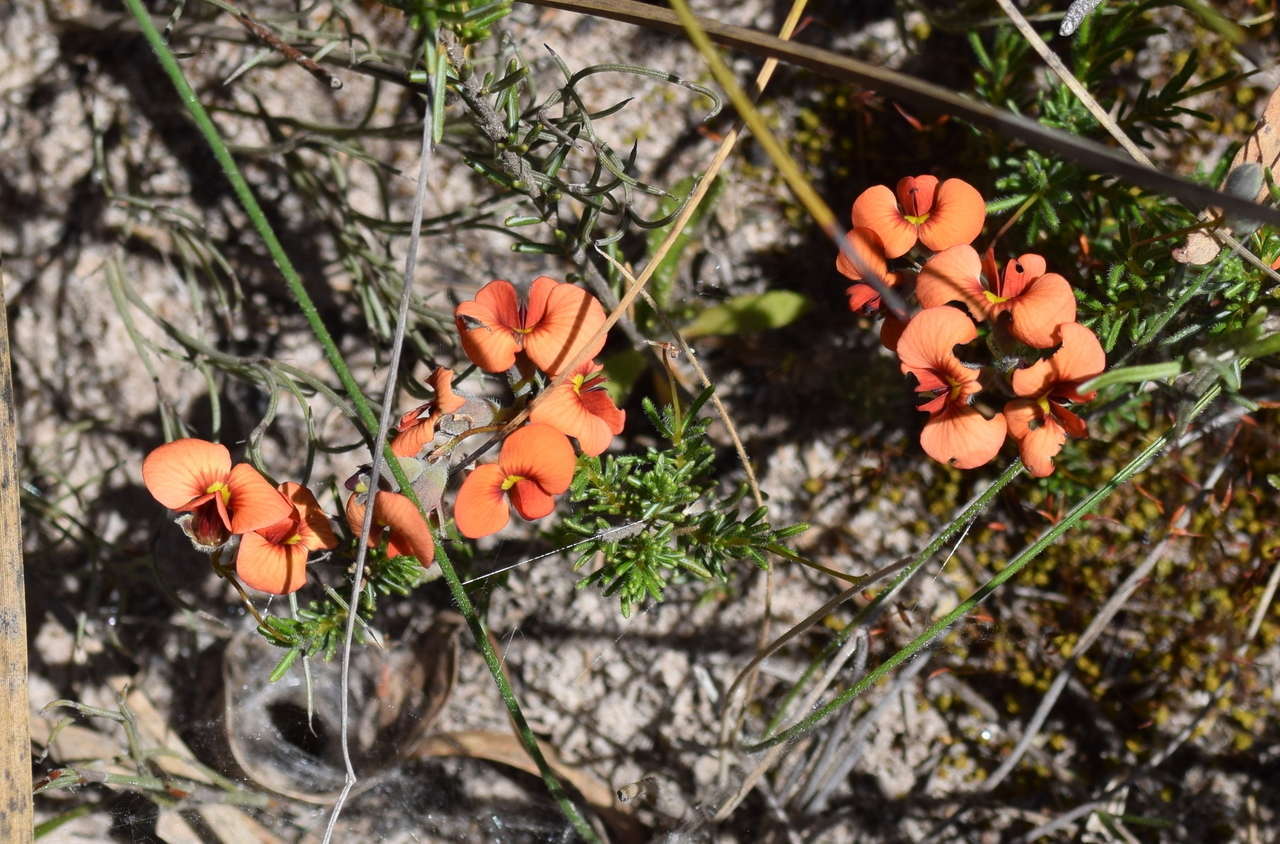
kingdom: Plantae
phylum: Tracheophyta
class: Magnoliopsida
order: Fabales
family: Fabaceae
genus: Dillwynia
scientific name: Dillwynia hispida
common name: Red parrot-pea
